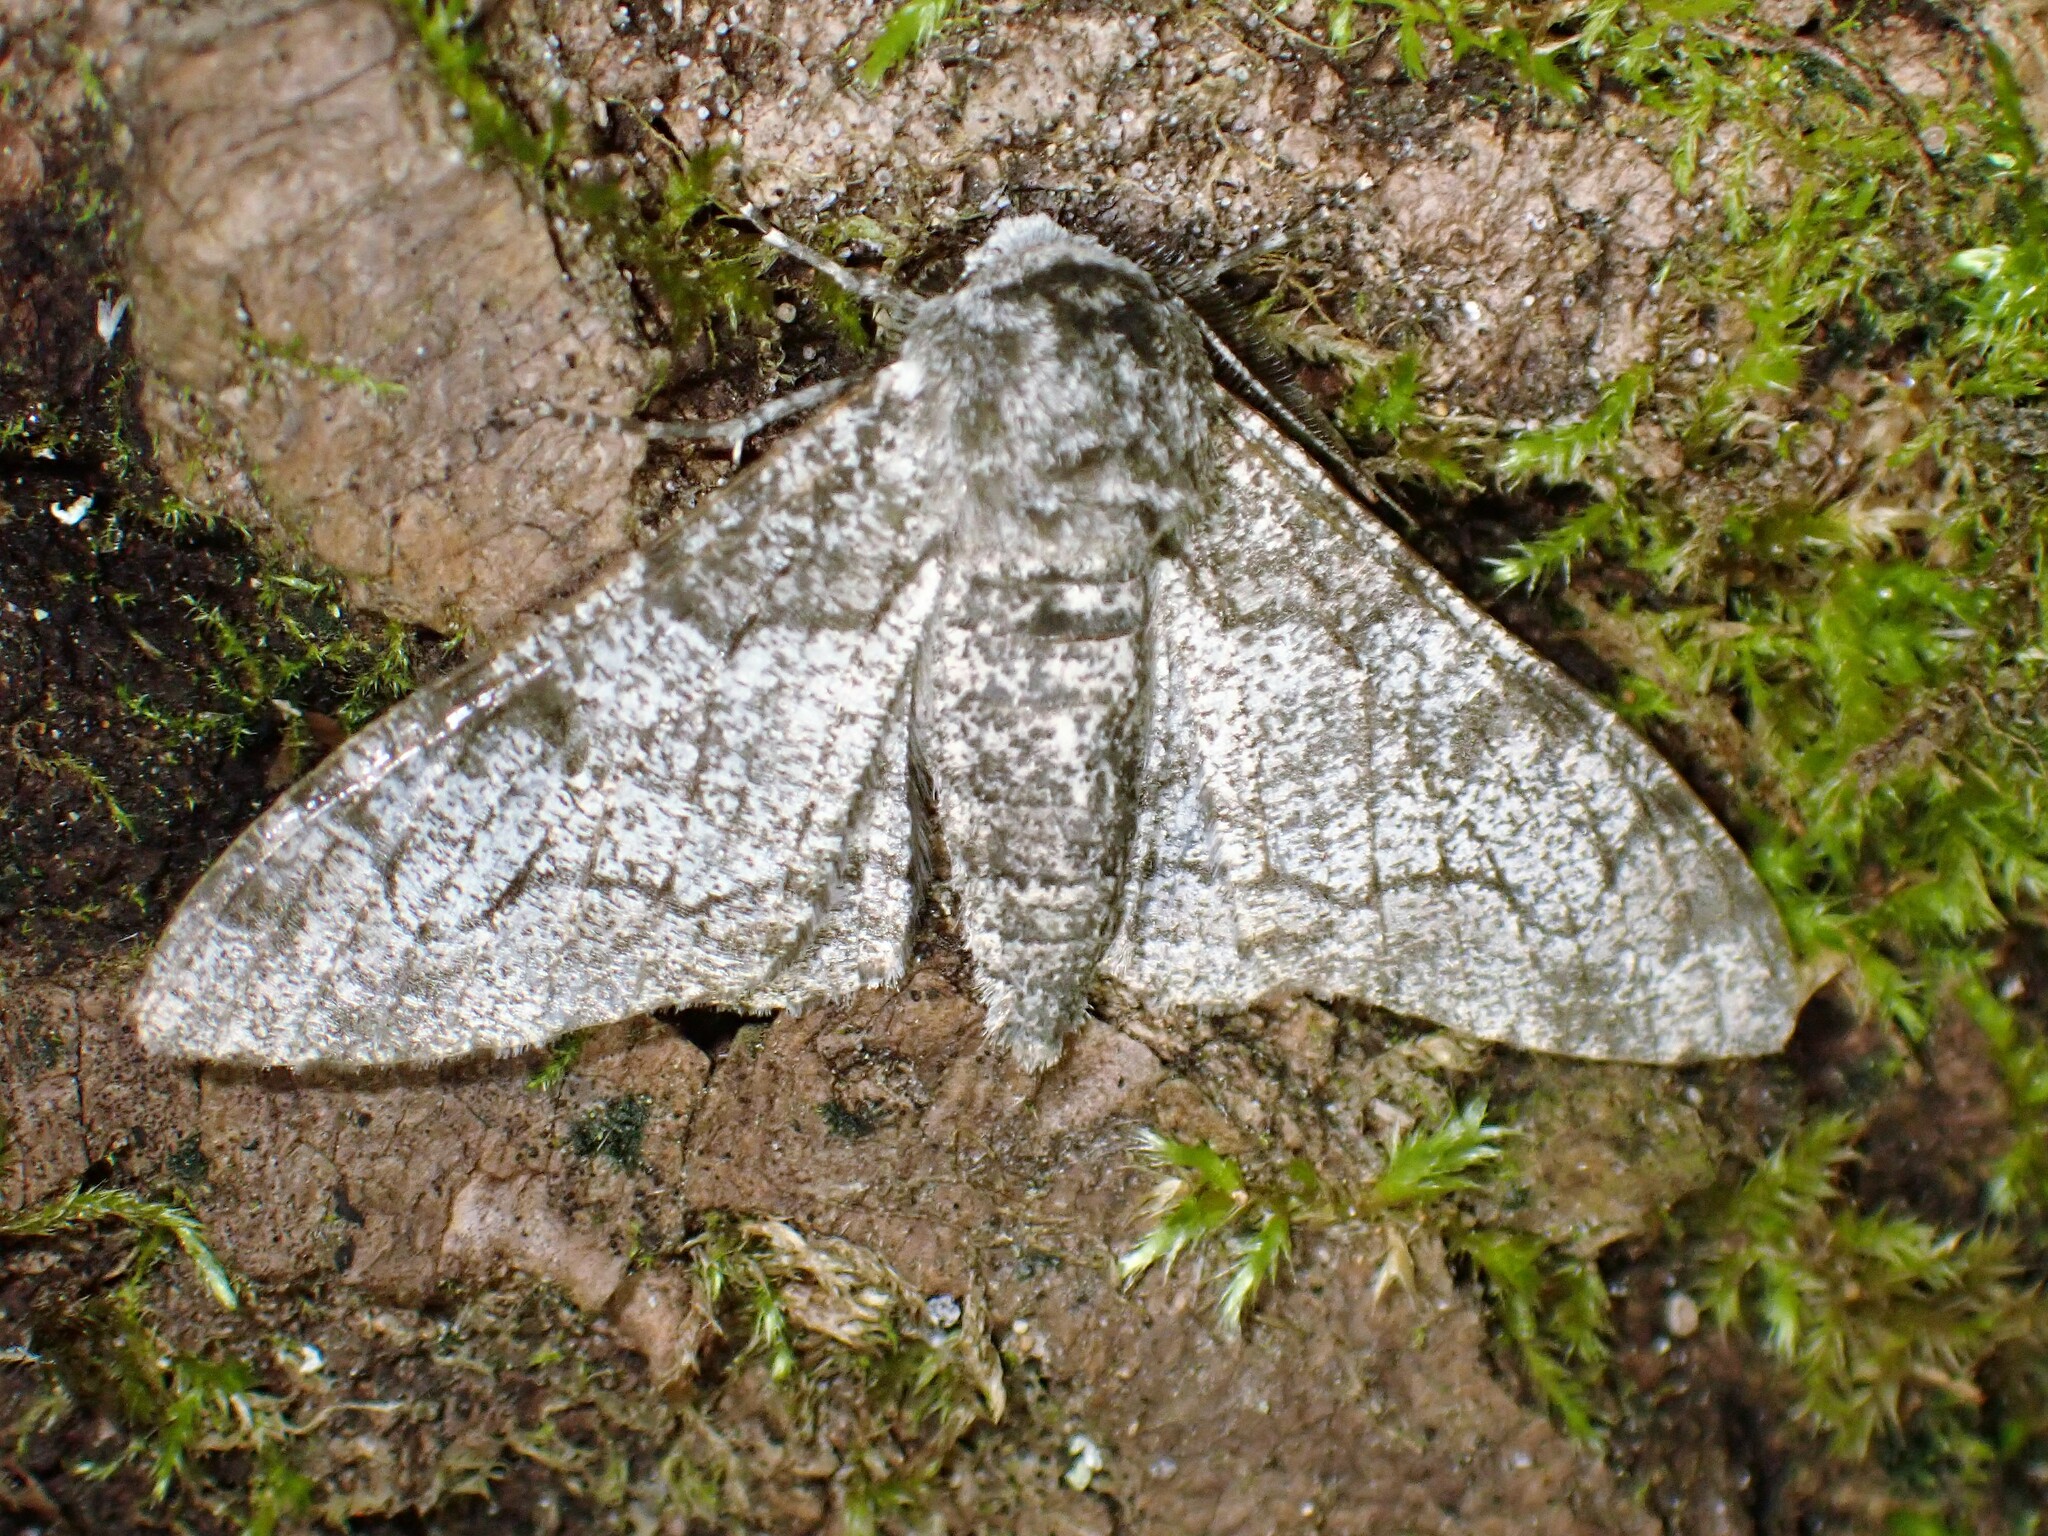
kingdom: Animalia
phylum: Arthropoda
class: Insecta
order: Lepidoptera
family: Geometridae
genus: Biston
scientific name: Biston betularia
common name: Peppered moth
